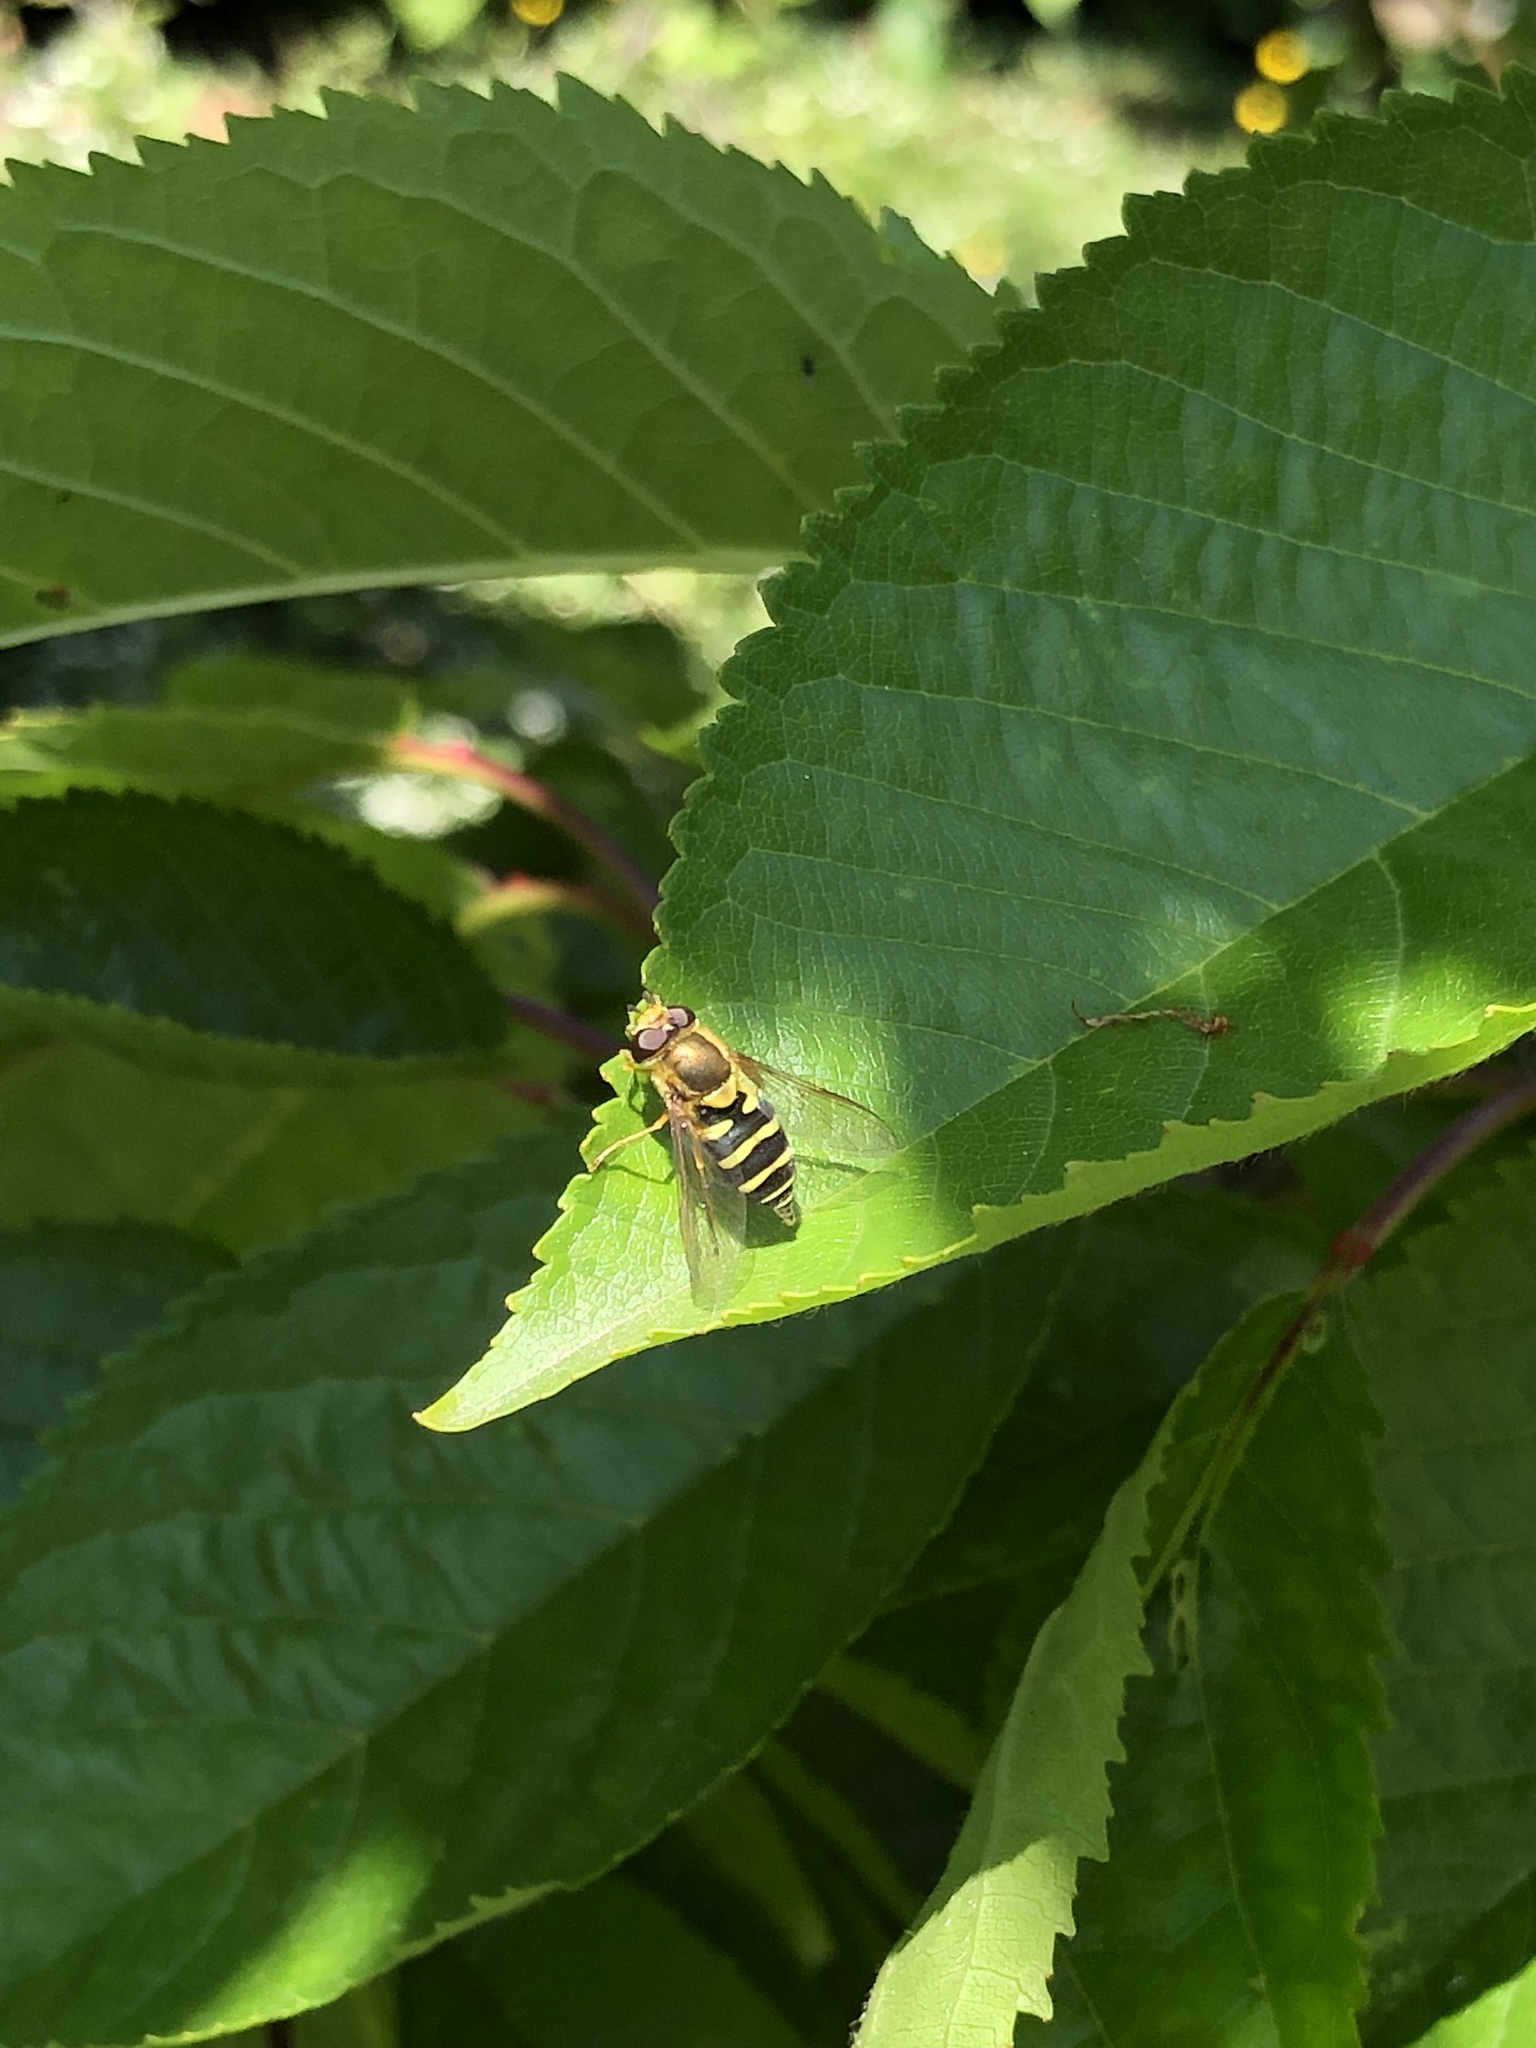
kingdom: Animalia
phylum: Arthropoda
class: Insecta
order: Diptera
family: Syrphidae
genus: Syrphus
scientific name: Syrphus opinator
